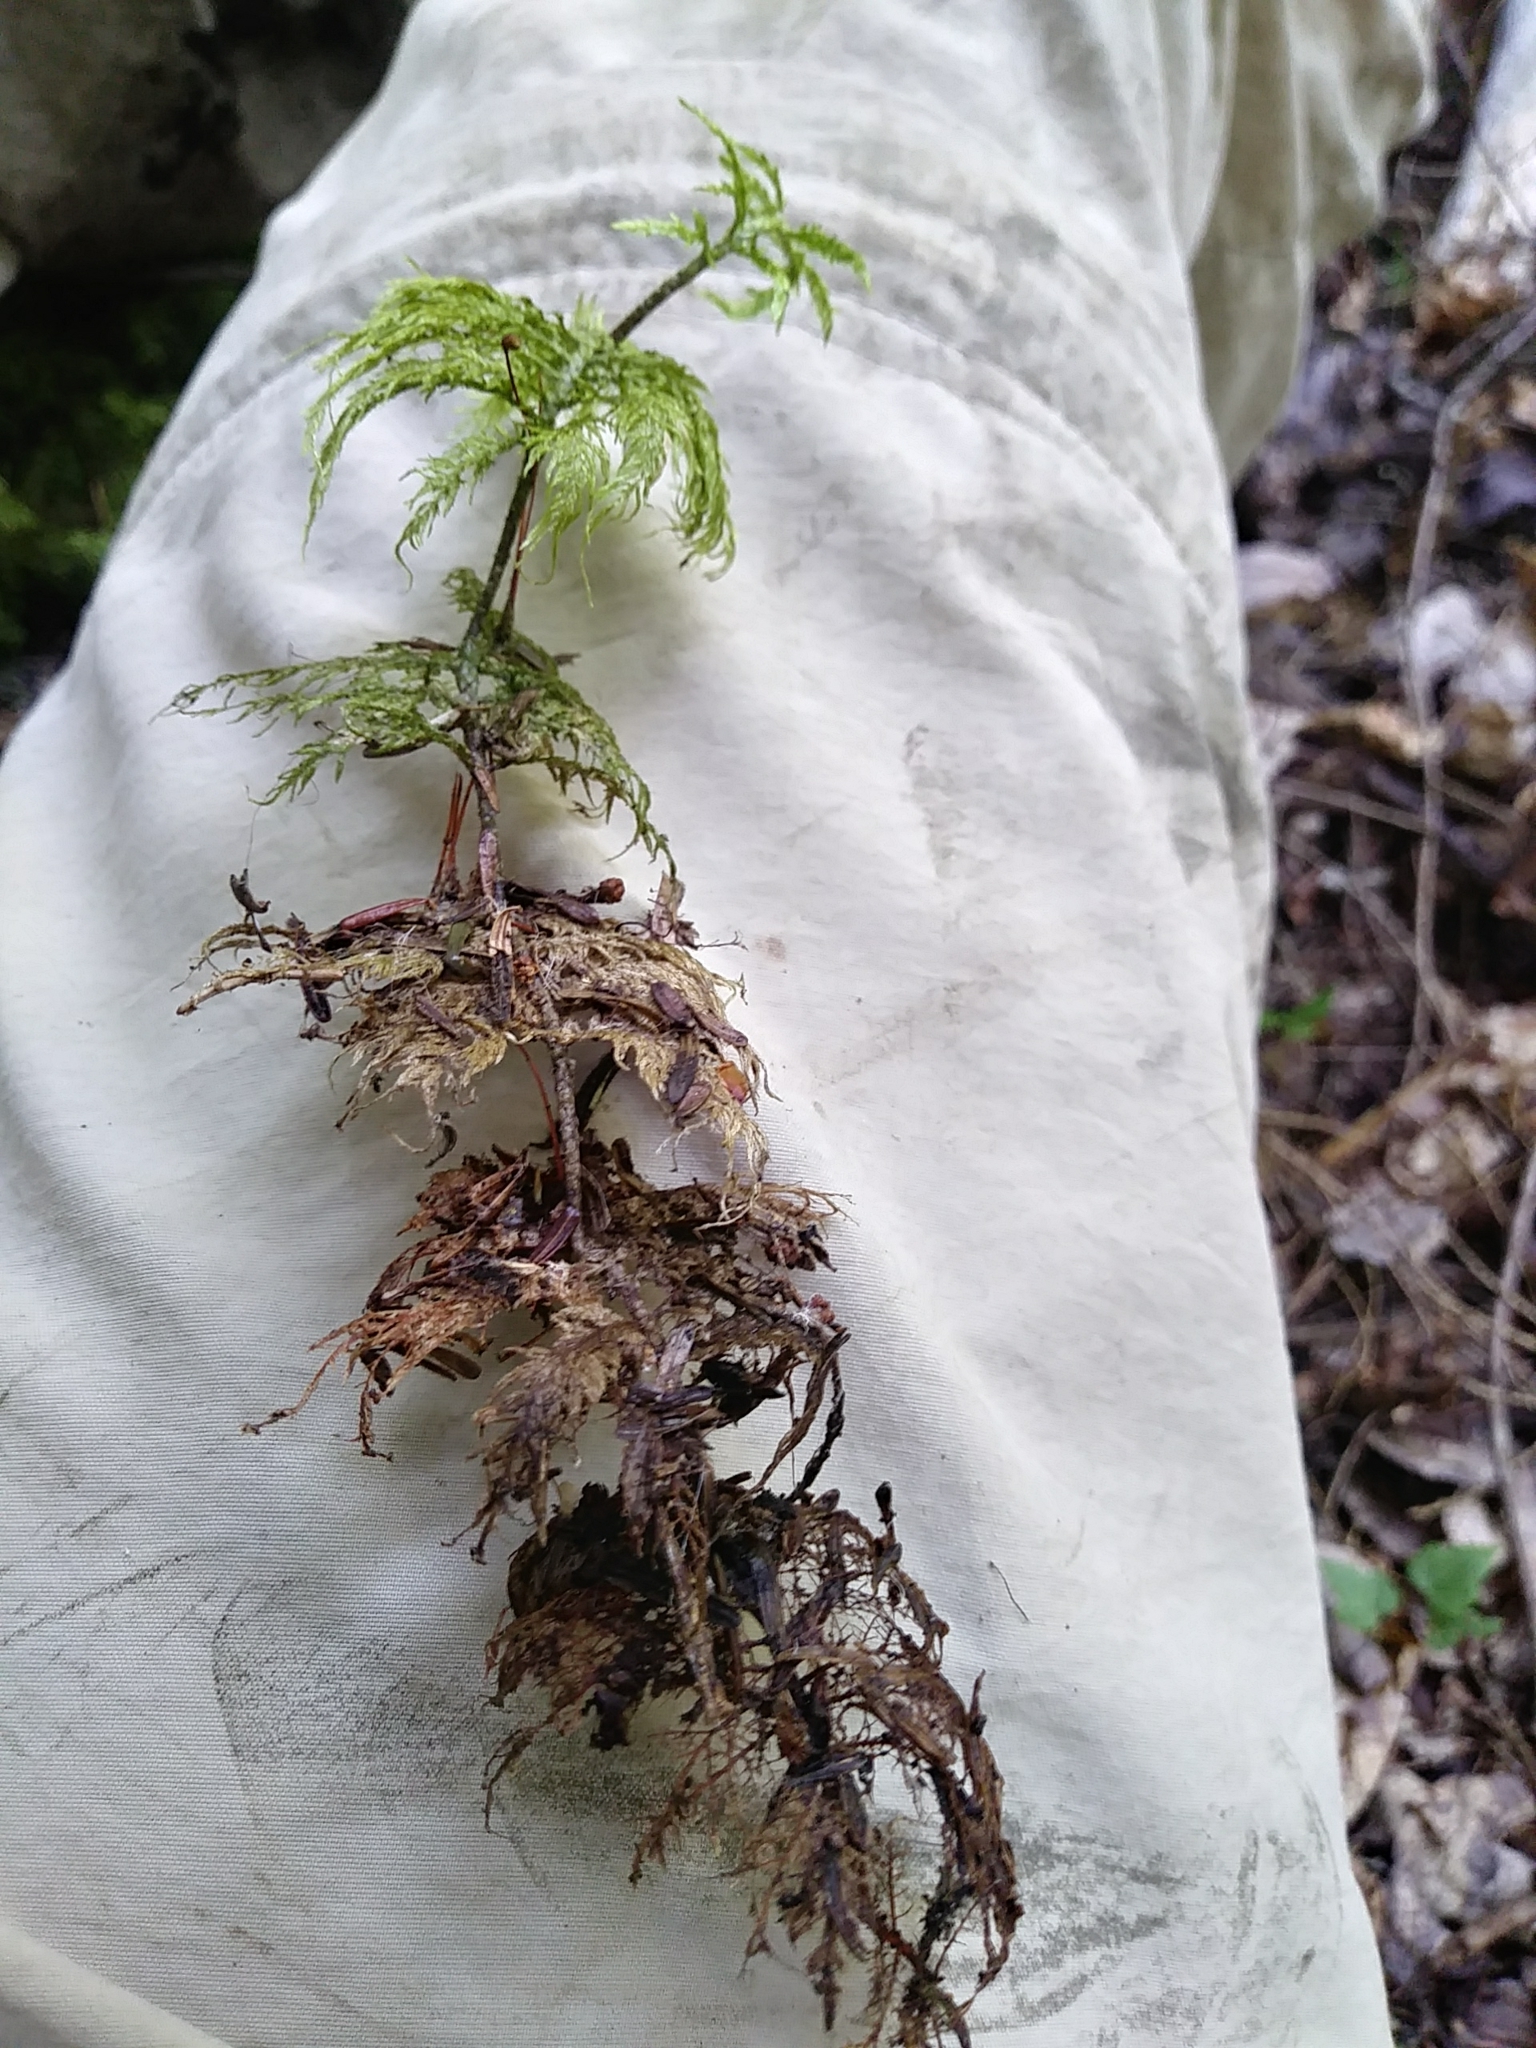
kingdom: Plantae
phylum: Bryophyta
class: Bryopsida
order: Hypnales
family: Hylocomiaceae
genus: Hylocomium
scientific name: Hylocomium splendens
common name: Stairstep moss
